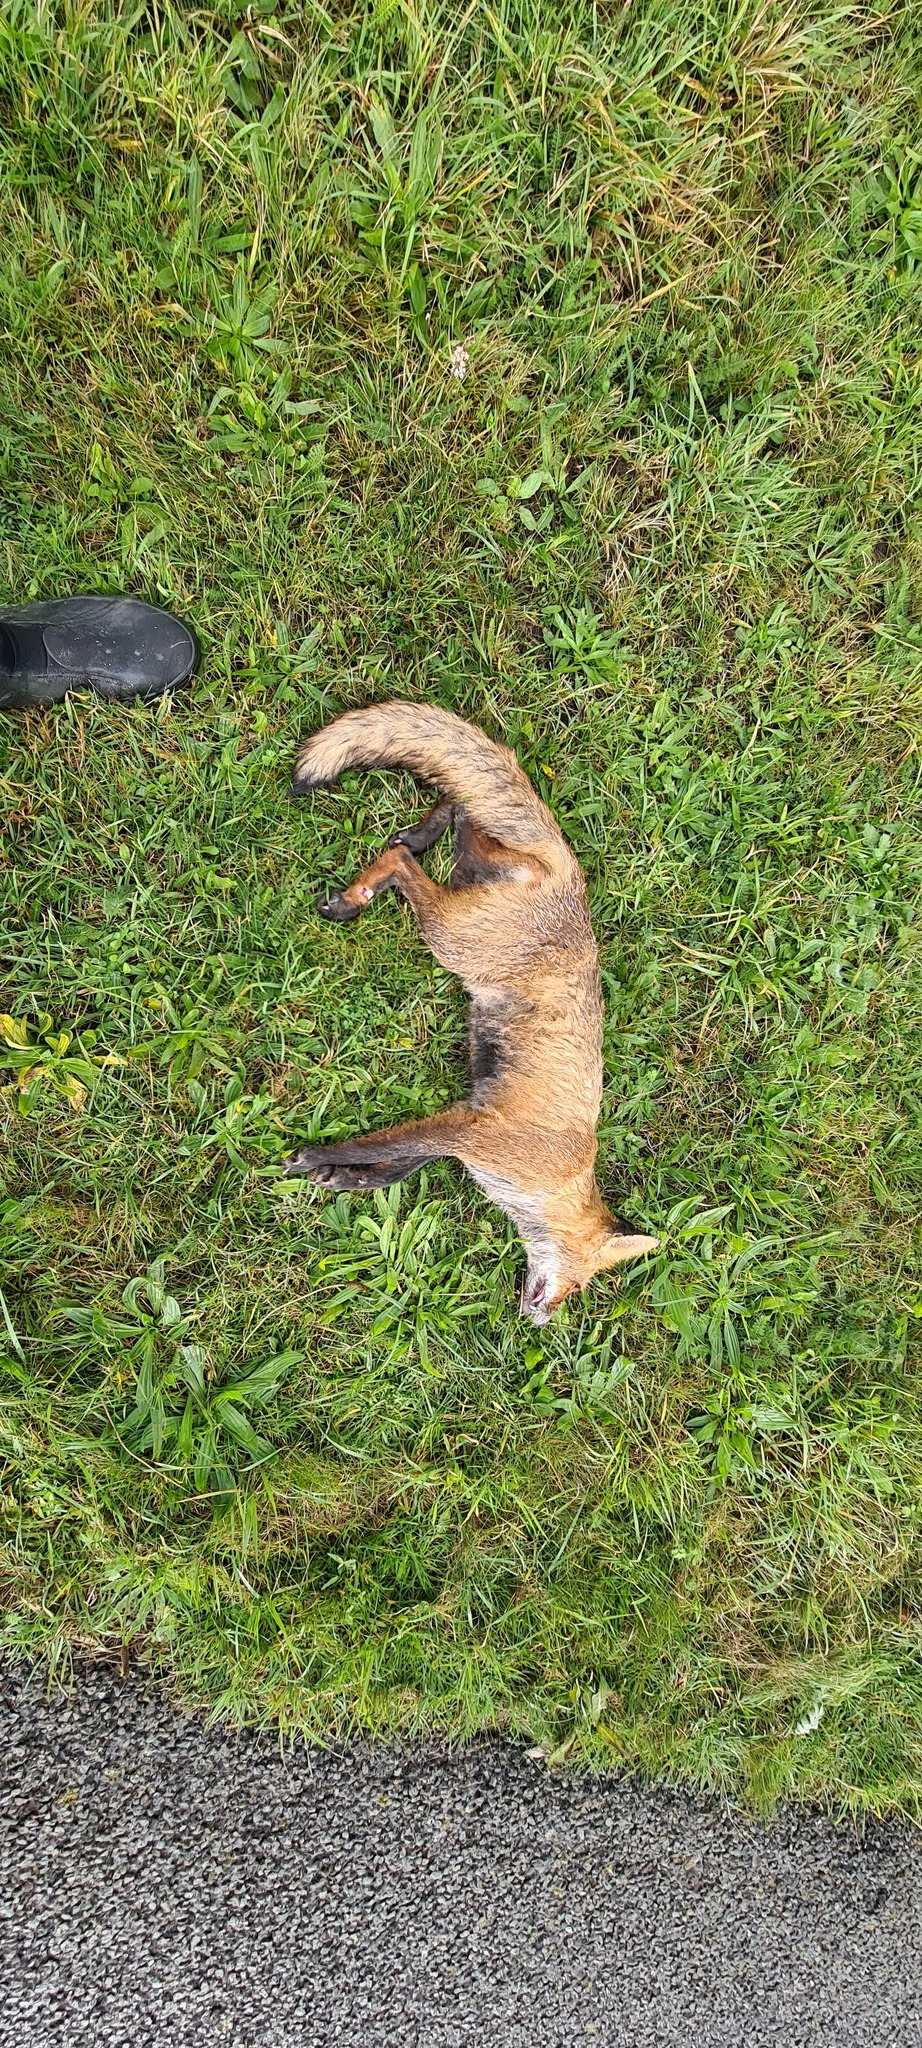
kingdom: Animalia
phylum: Chordata
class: Mammalia
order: Carnivora
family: Canidae
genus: Vulpes
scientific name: Vulpes vulpes
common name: Red fox
